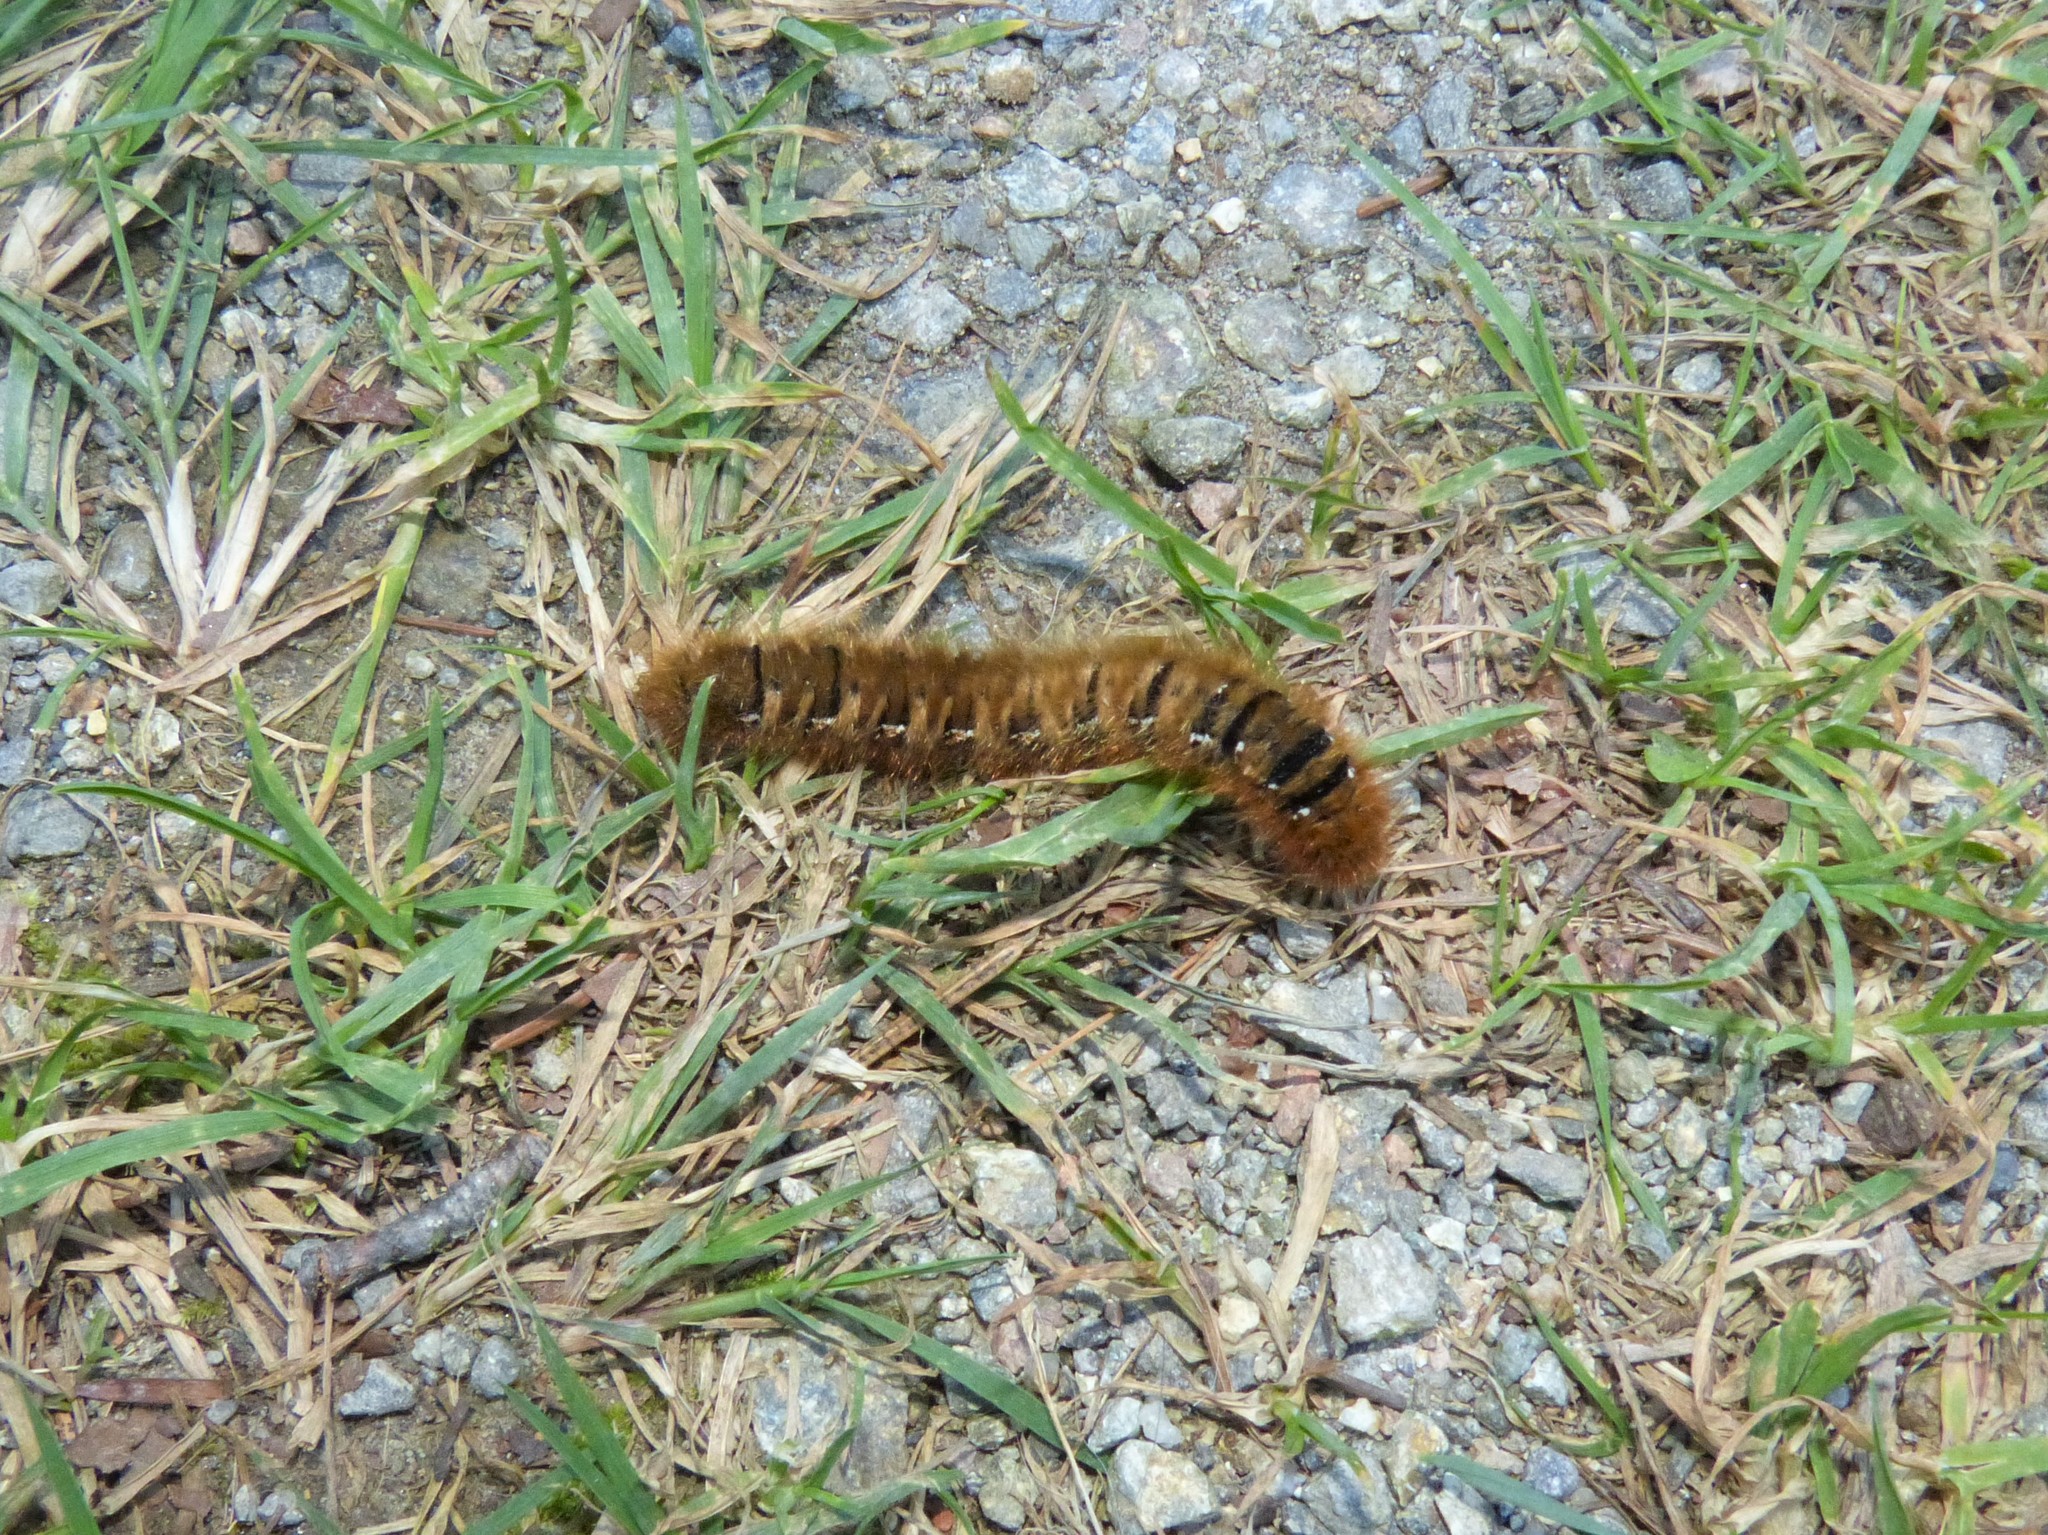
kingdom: Animalia
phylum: Arthropoda
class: Insecta
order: Lepidoptera
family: Lasiocampidae
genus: Lasiocampa
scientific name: Lasiocampa quercus
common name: Oak eggar
